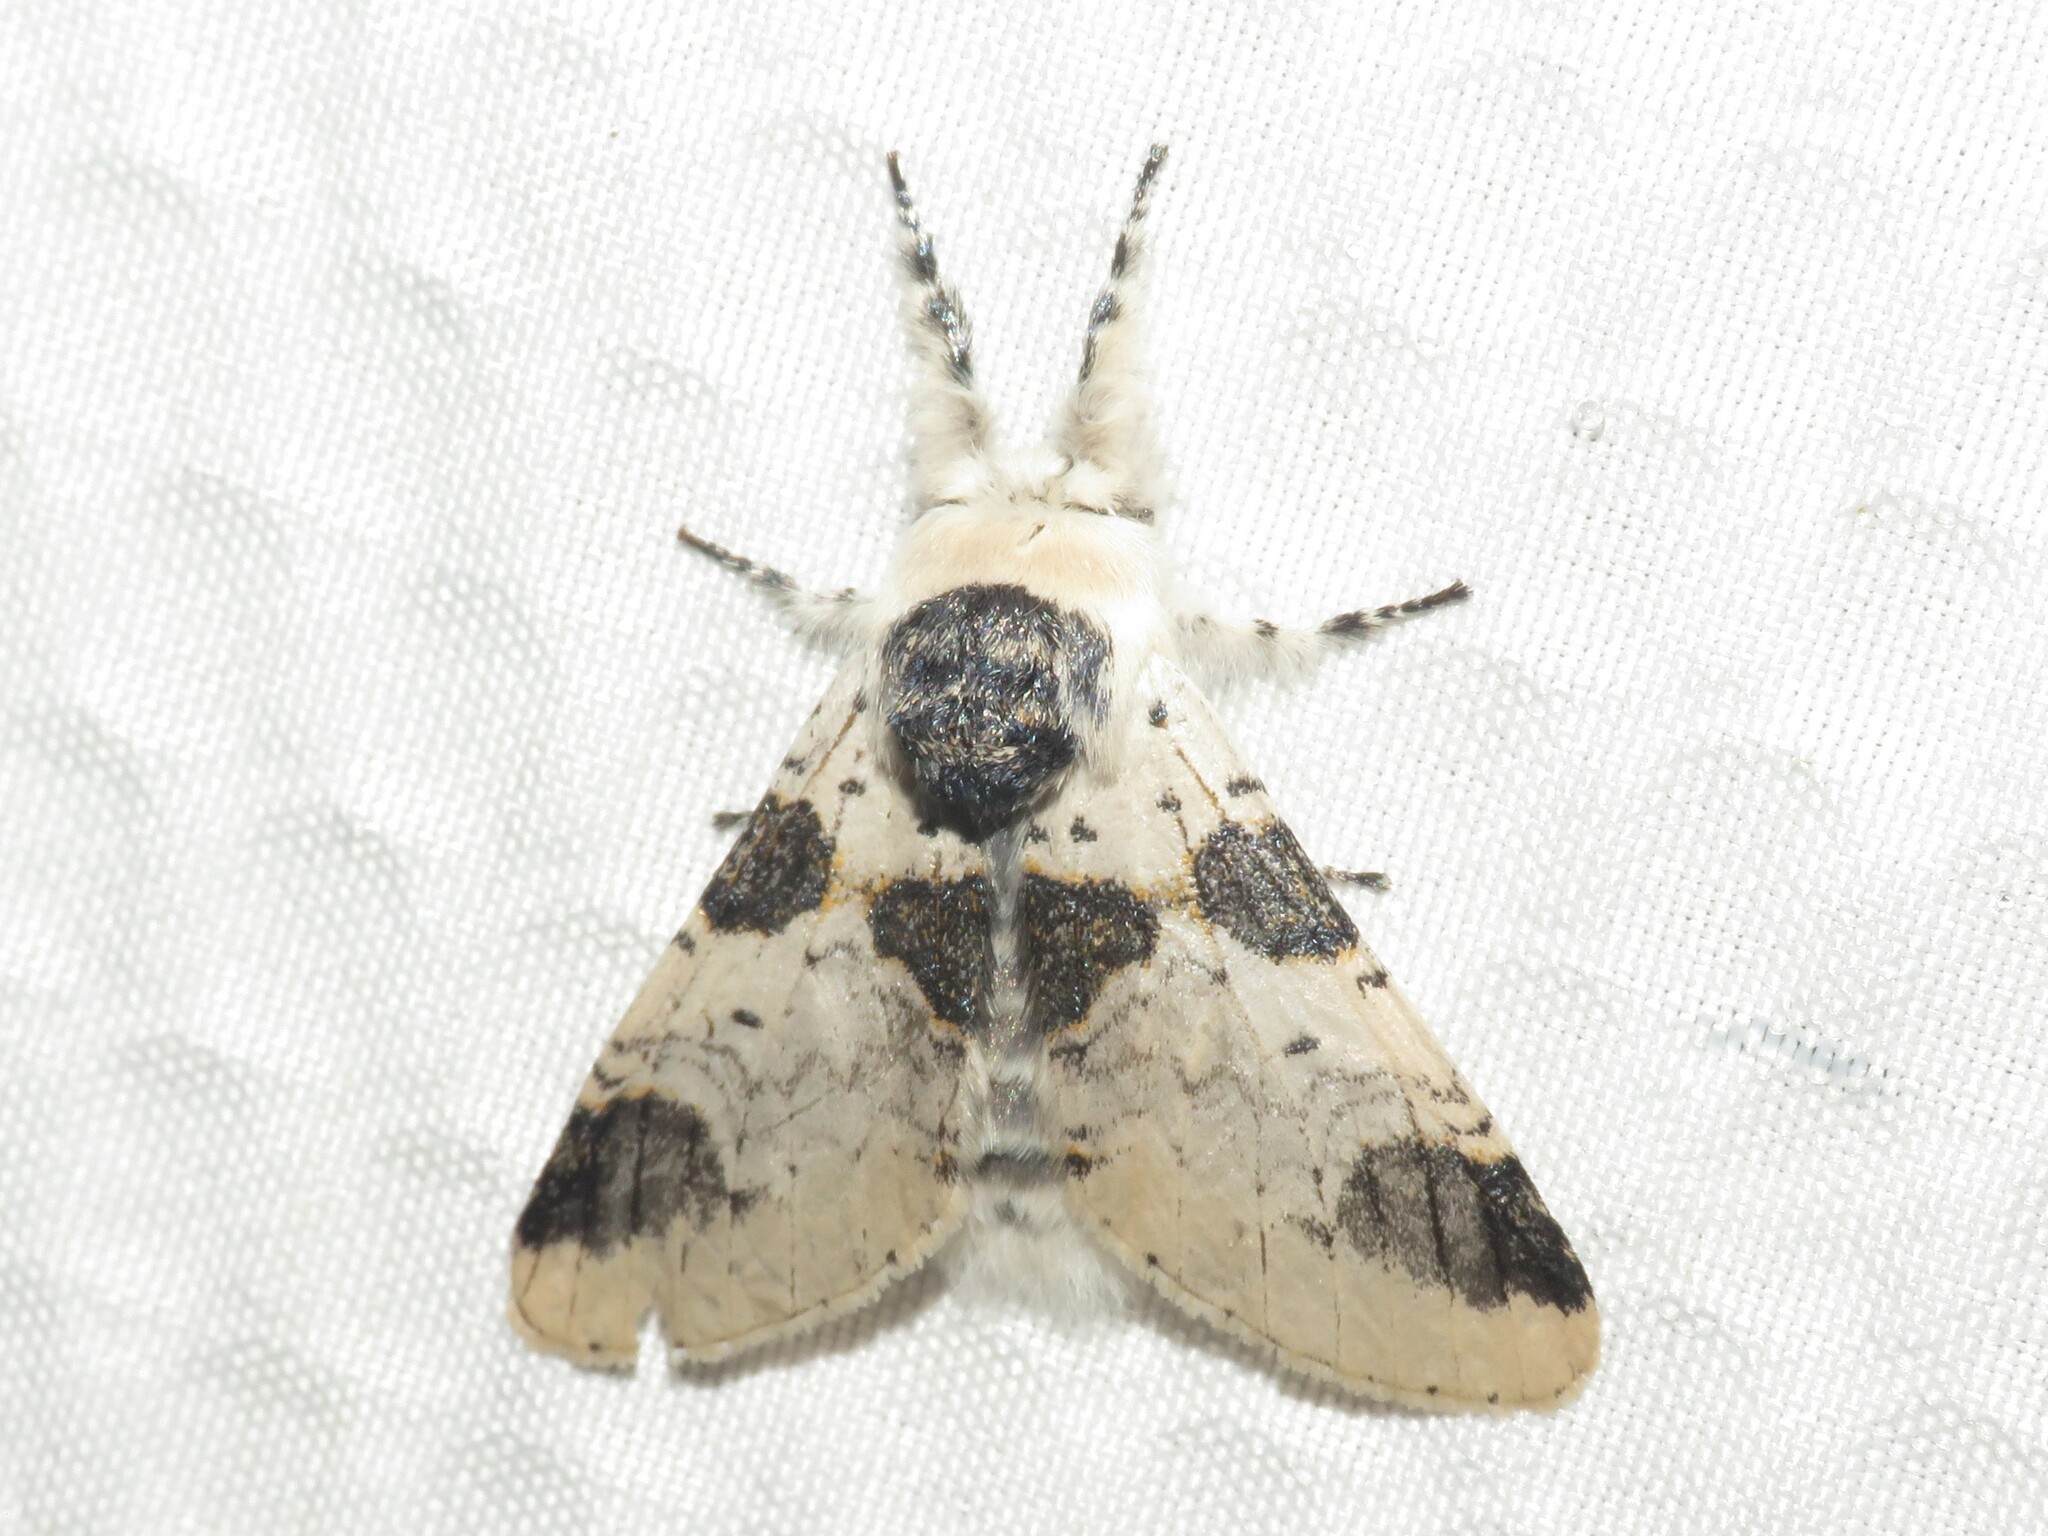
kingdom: Animalia
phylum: Arthropoda
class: Insecta
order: Lepidoptera
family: Notodontidae
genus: Furcula
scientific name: Furcula modesta
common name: Modest furcula moth
